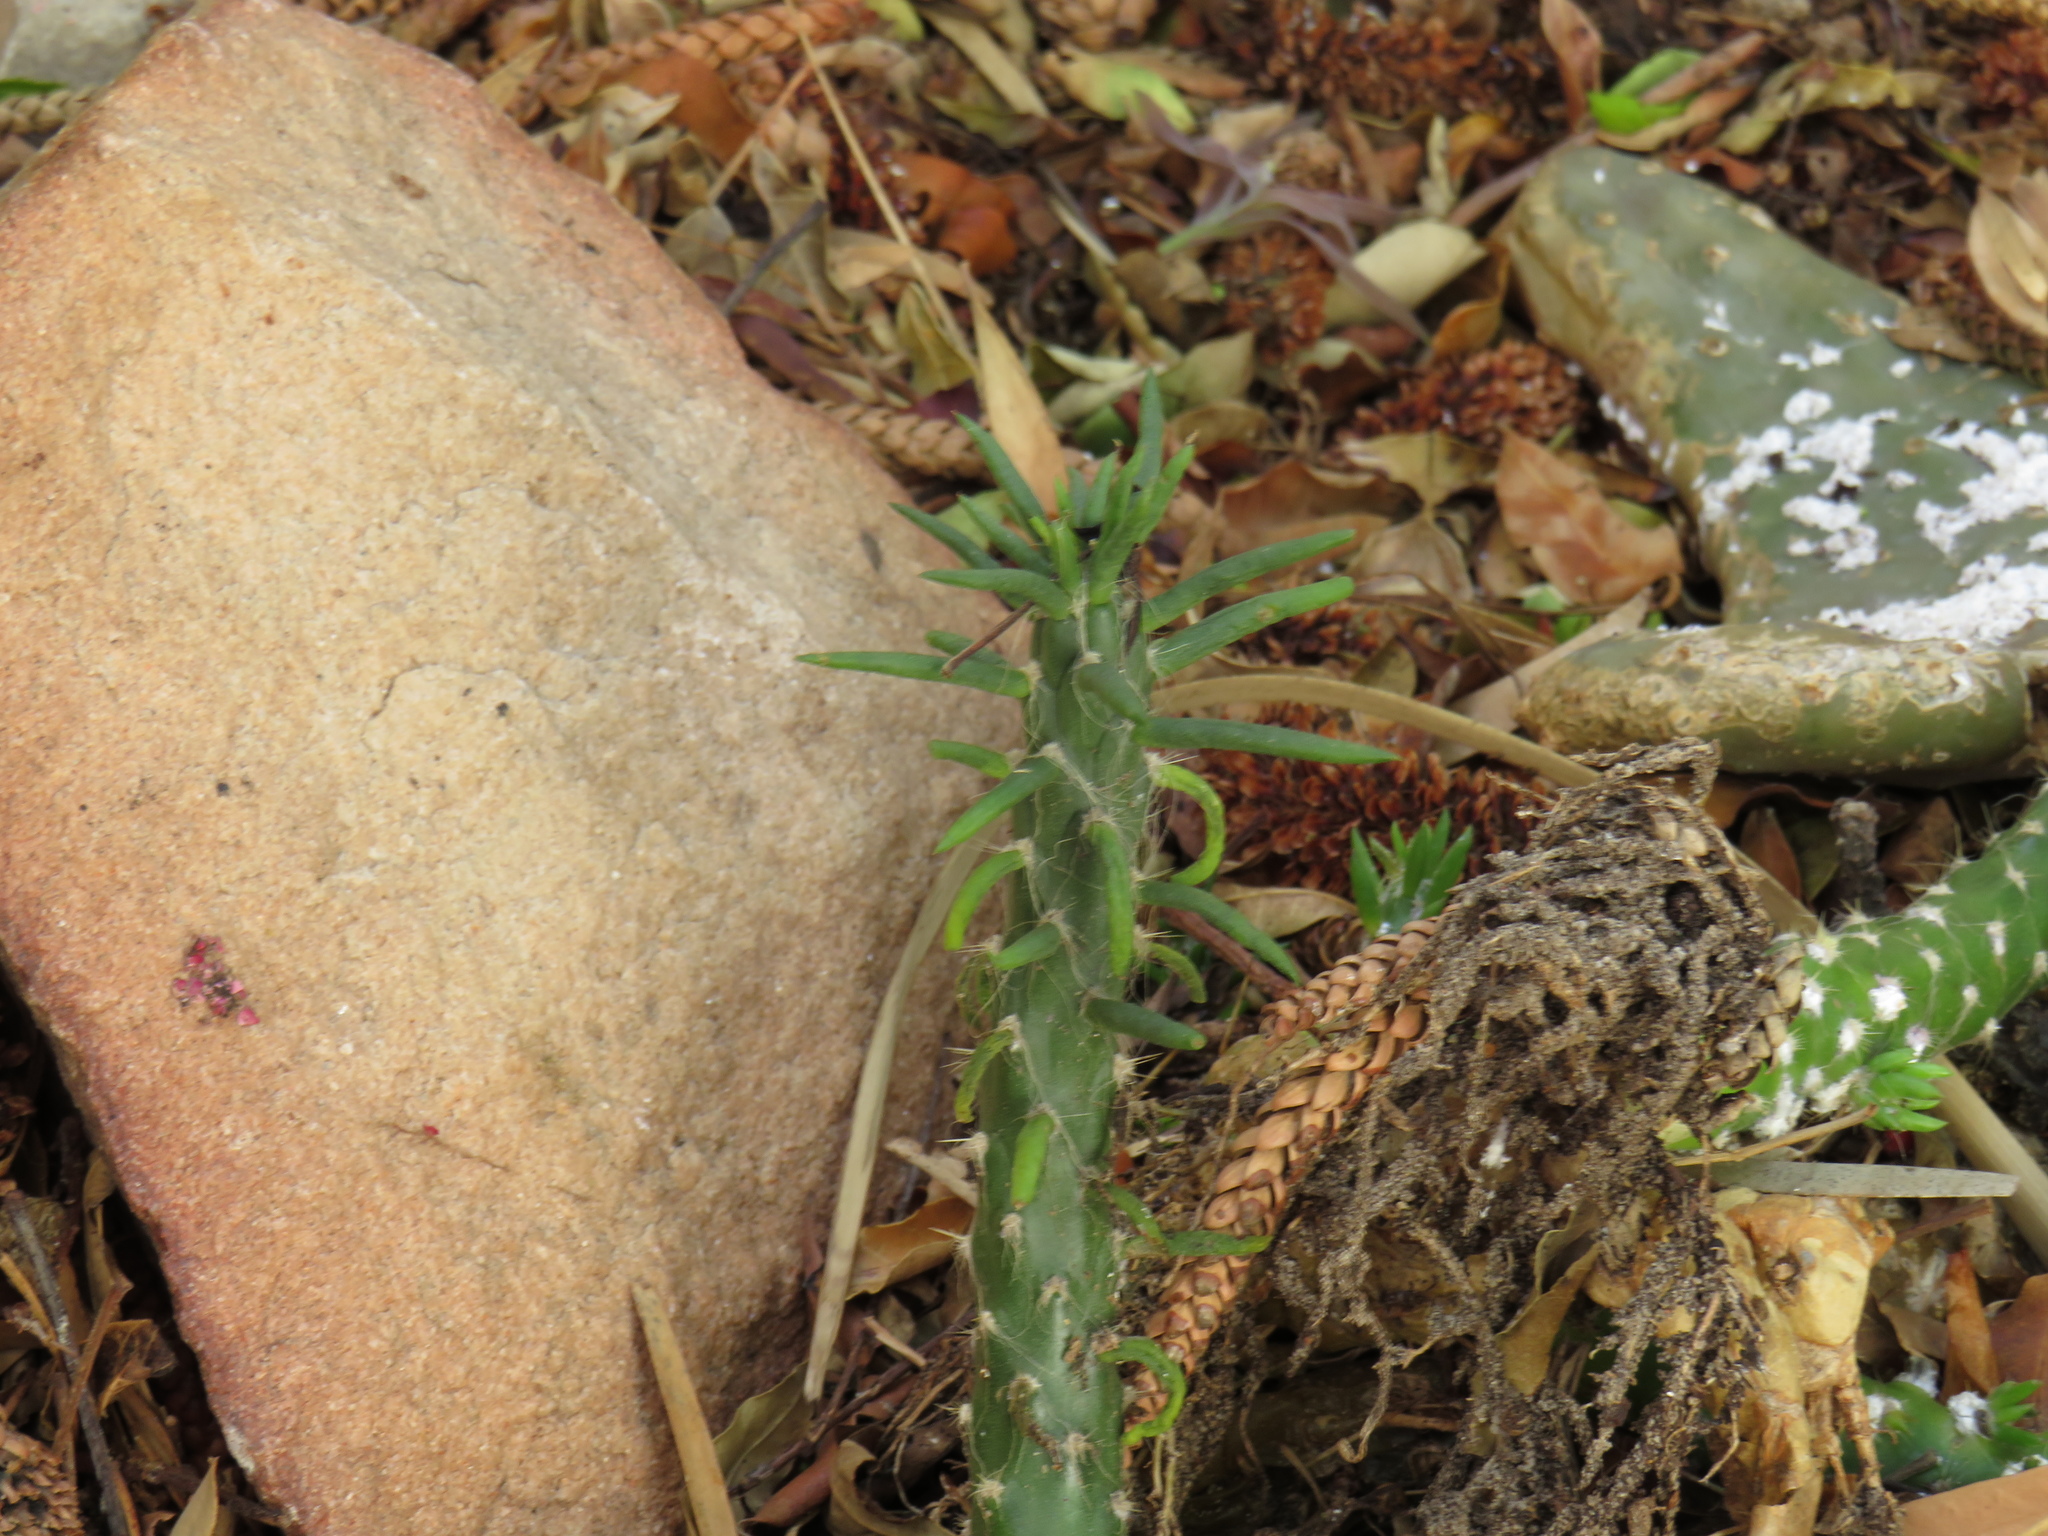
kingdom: Plantae
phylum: Tracheophyta
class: Magnoliopsida
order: Caryophyllales
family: Cactaceae
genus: Austrocylindropuntia
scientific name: Austrocylindropuntia subulata
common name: Eve's needle cactus
